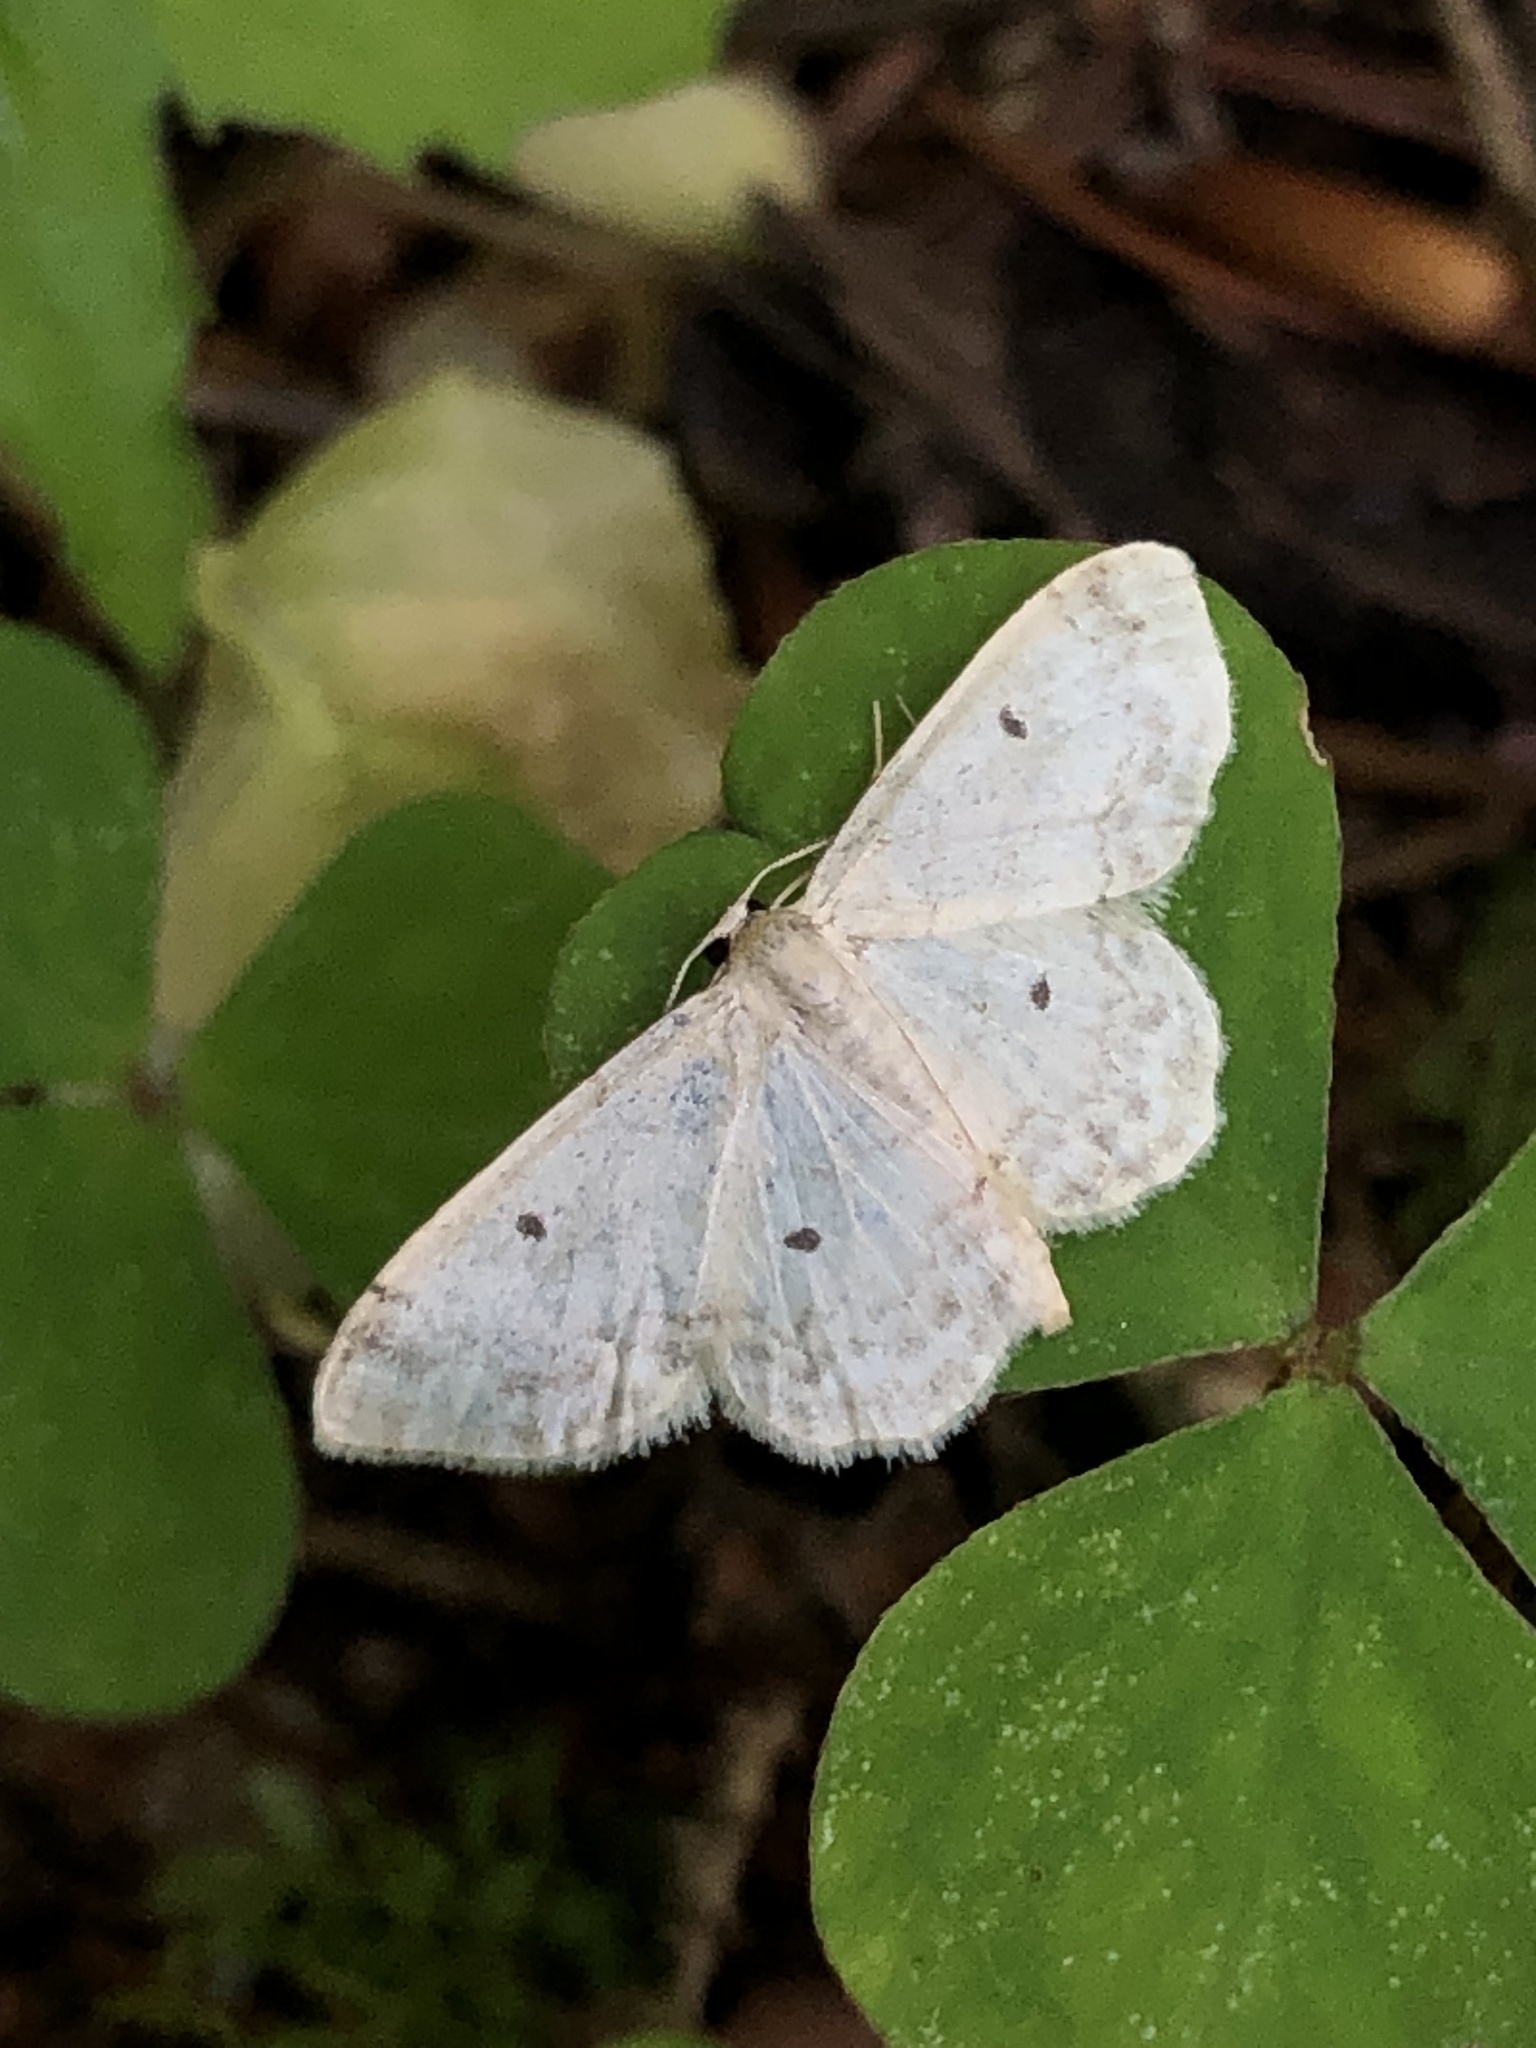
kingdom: Animalia
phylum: Arthropoda
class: Insecta
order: Lepidoptera
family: Geometridae
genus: Idaea
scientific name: Idaea biselata
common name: Small fan-footed wave
